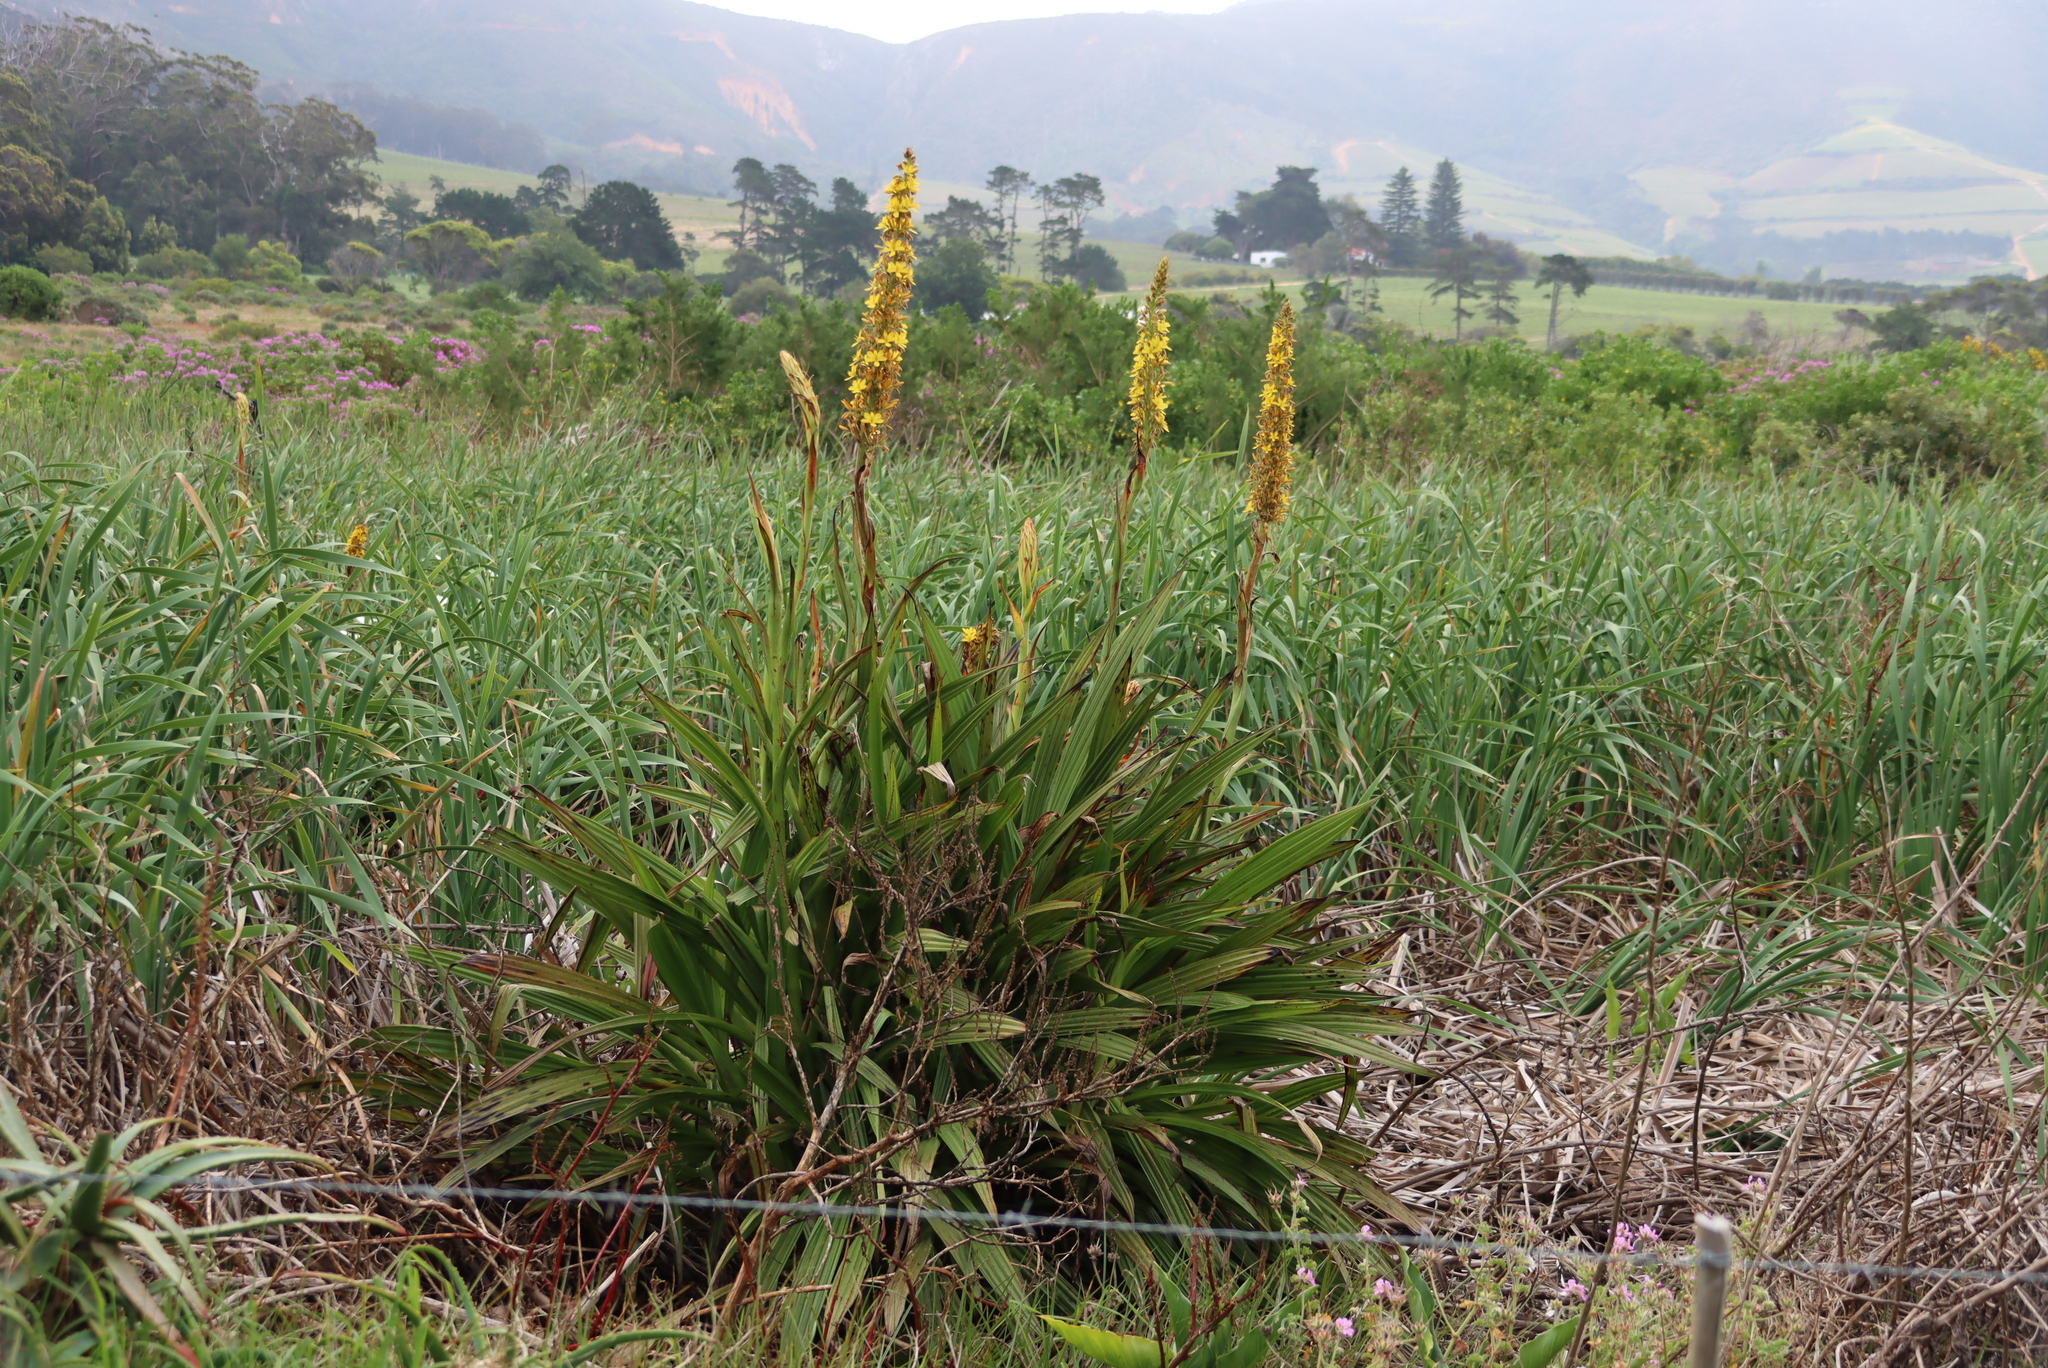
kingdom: Plantae
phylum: Tracheophyta
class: Liliopsida
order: Commelinales
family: Haemodoraceae
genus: Wachendorfia
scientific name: Wachendorfia thyrsiflora
